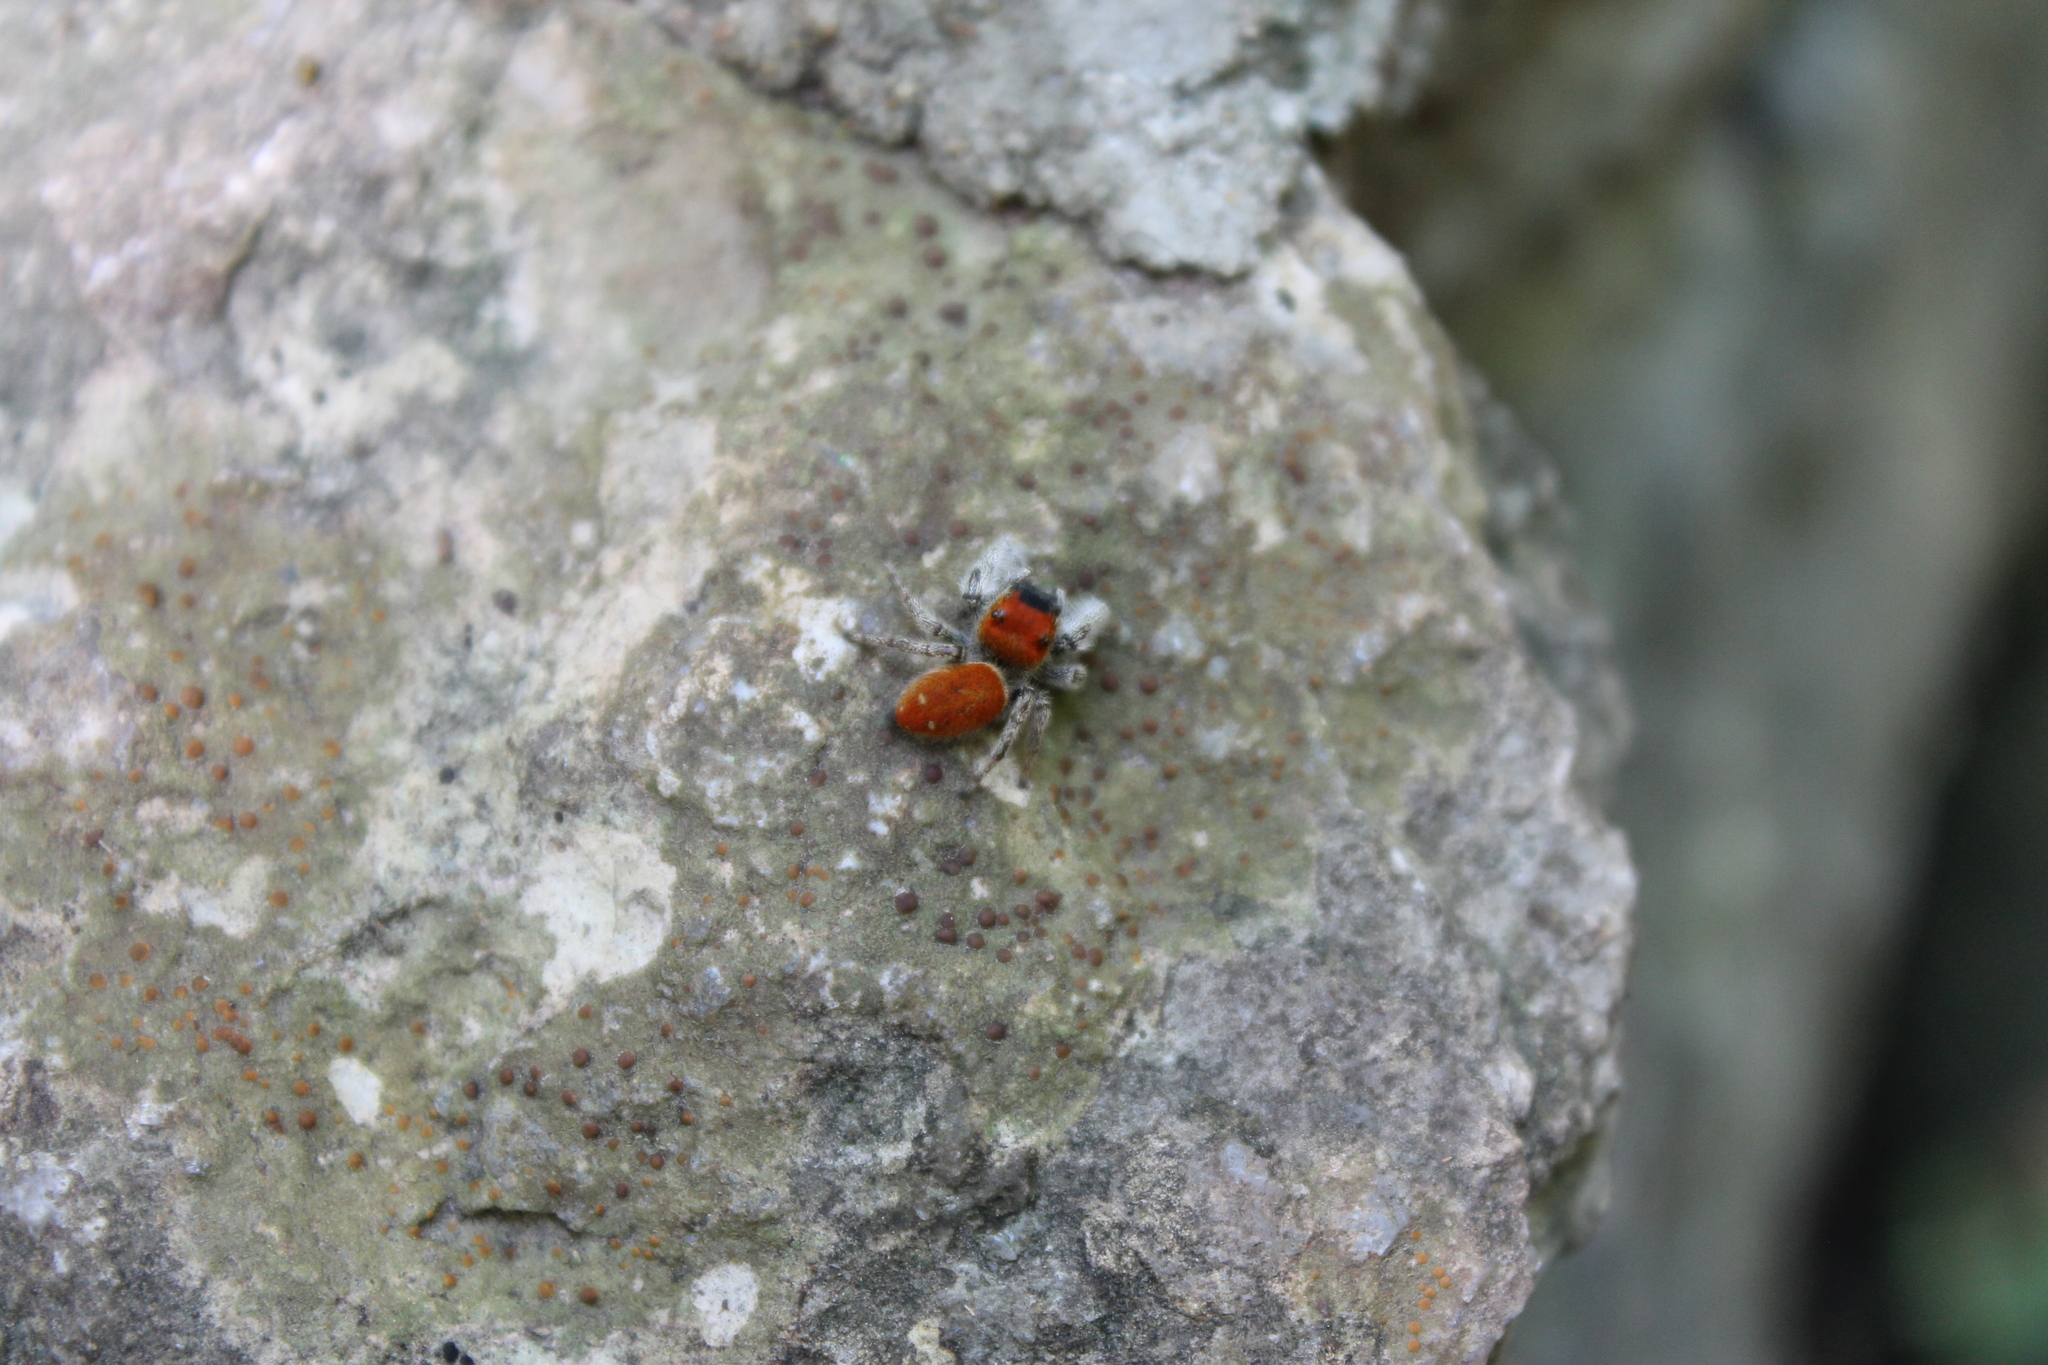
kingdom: Animalia
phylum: Arthropoda
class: Arachnida
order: Araneae
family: Salticidae
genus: Phidippus
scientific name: Phidippus whitmani
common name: Whitman's jumping spider
